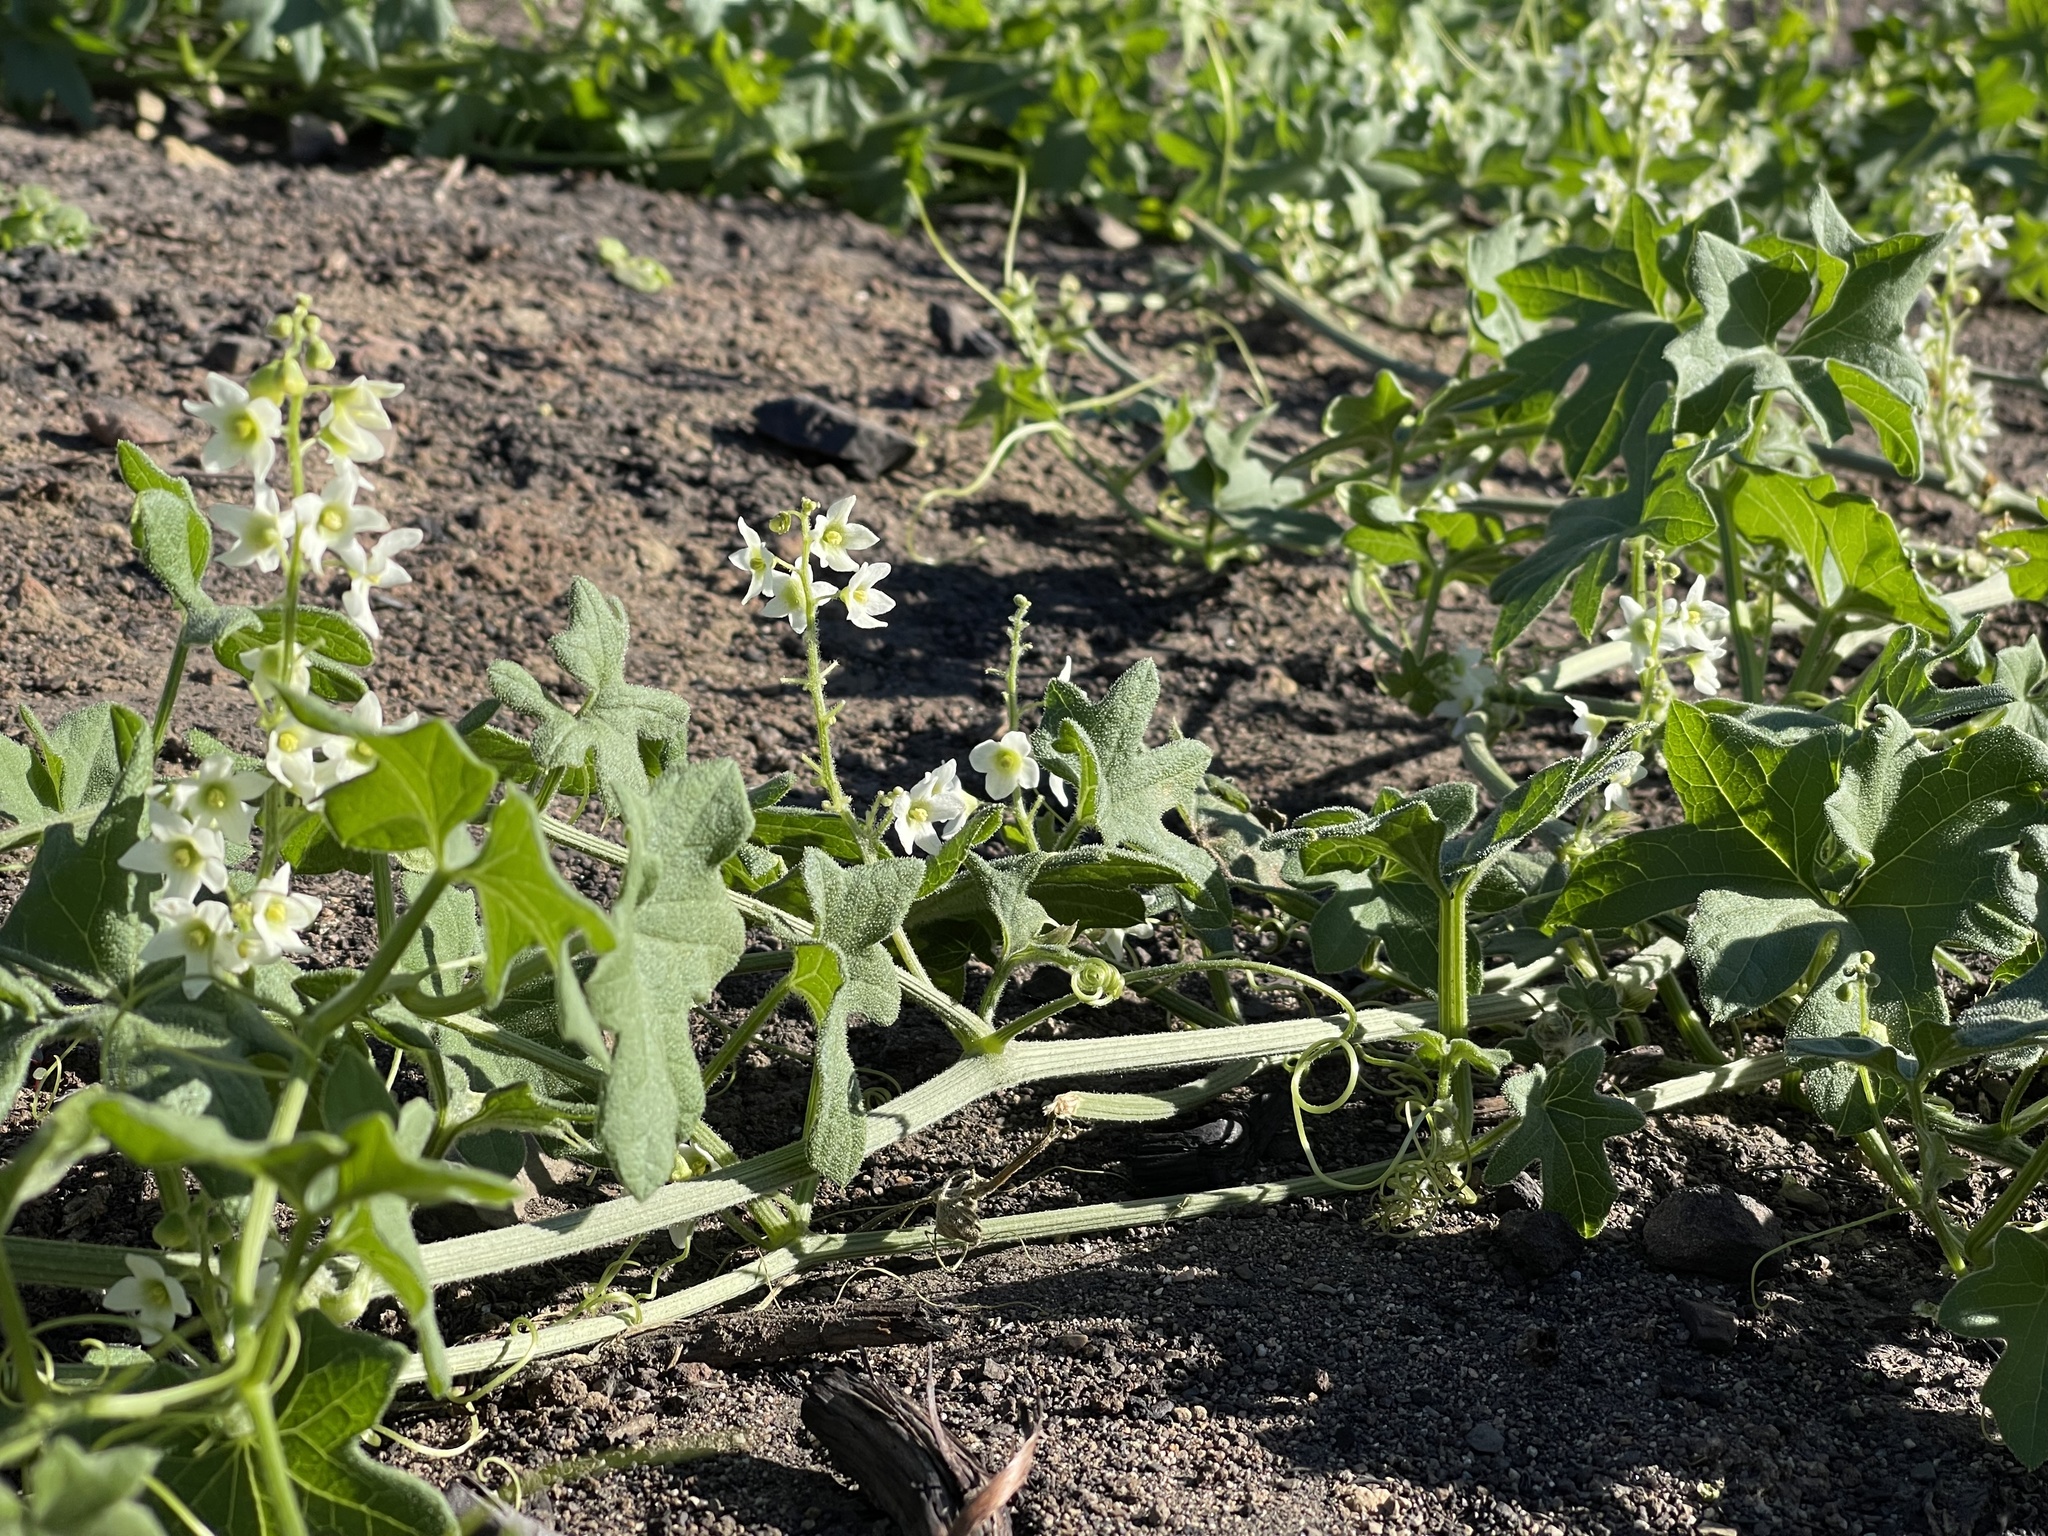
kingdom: Plantae
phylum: Tracheophyta
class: Magnoliopsida
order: Cucurbitales
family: Cucurbitaceae
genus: Marah
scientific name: Marah macrocarpa
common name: Cucamonga manroot
